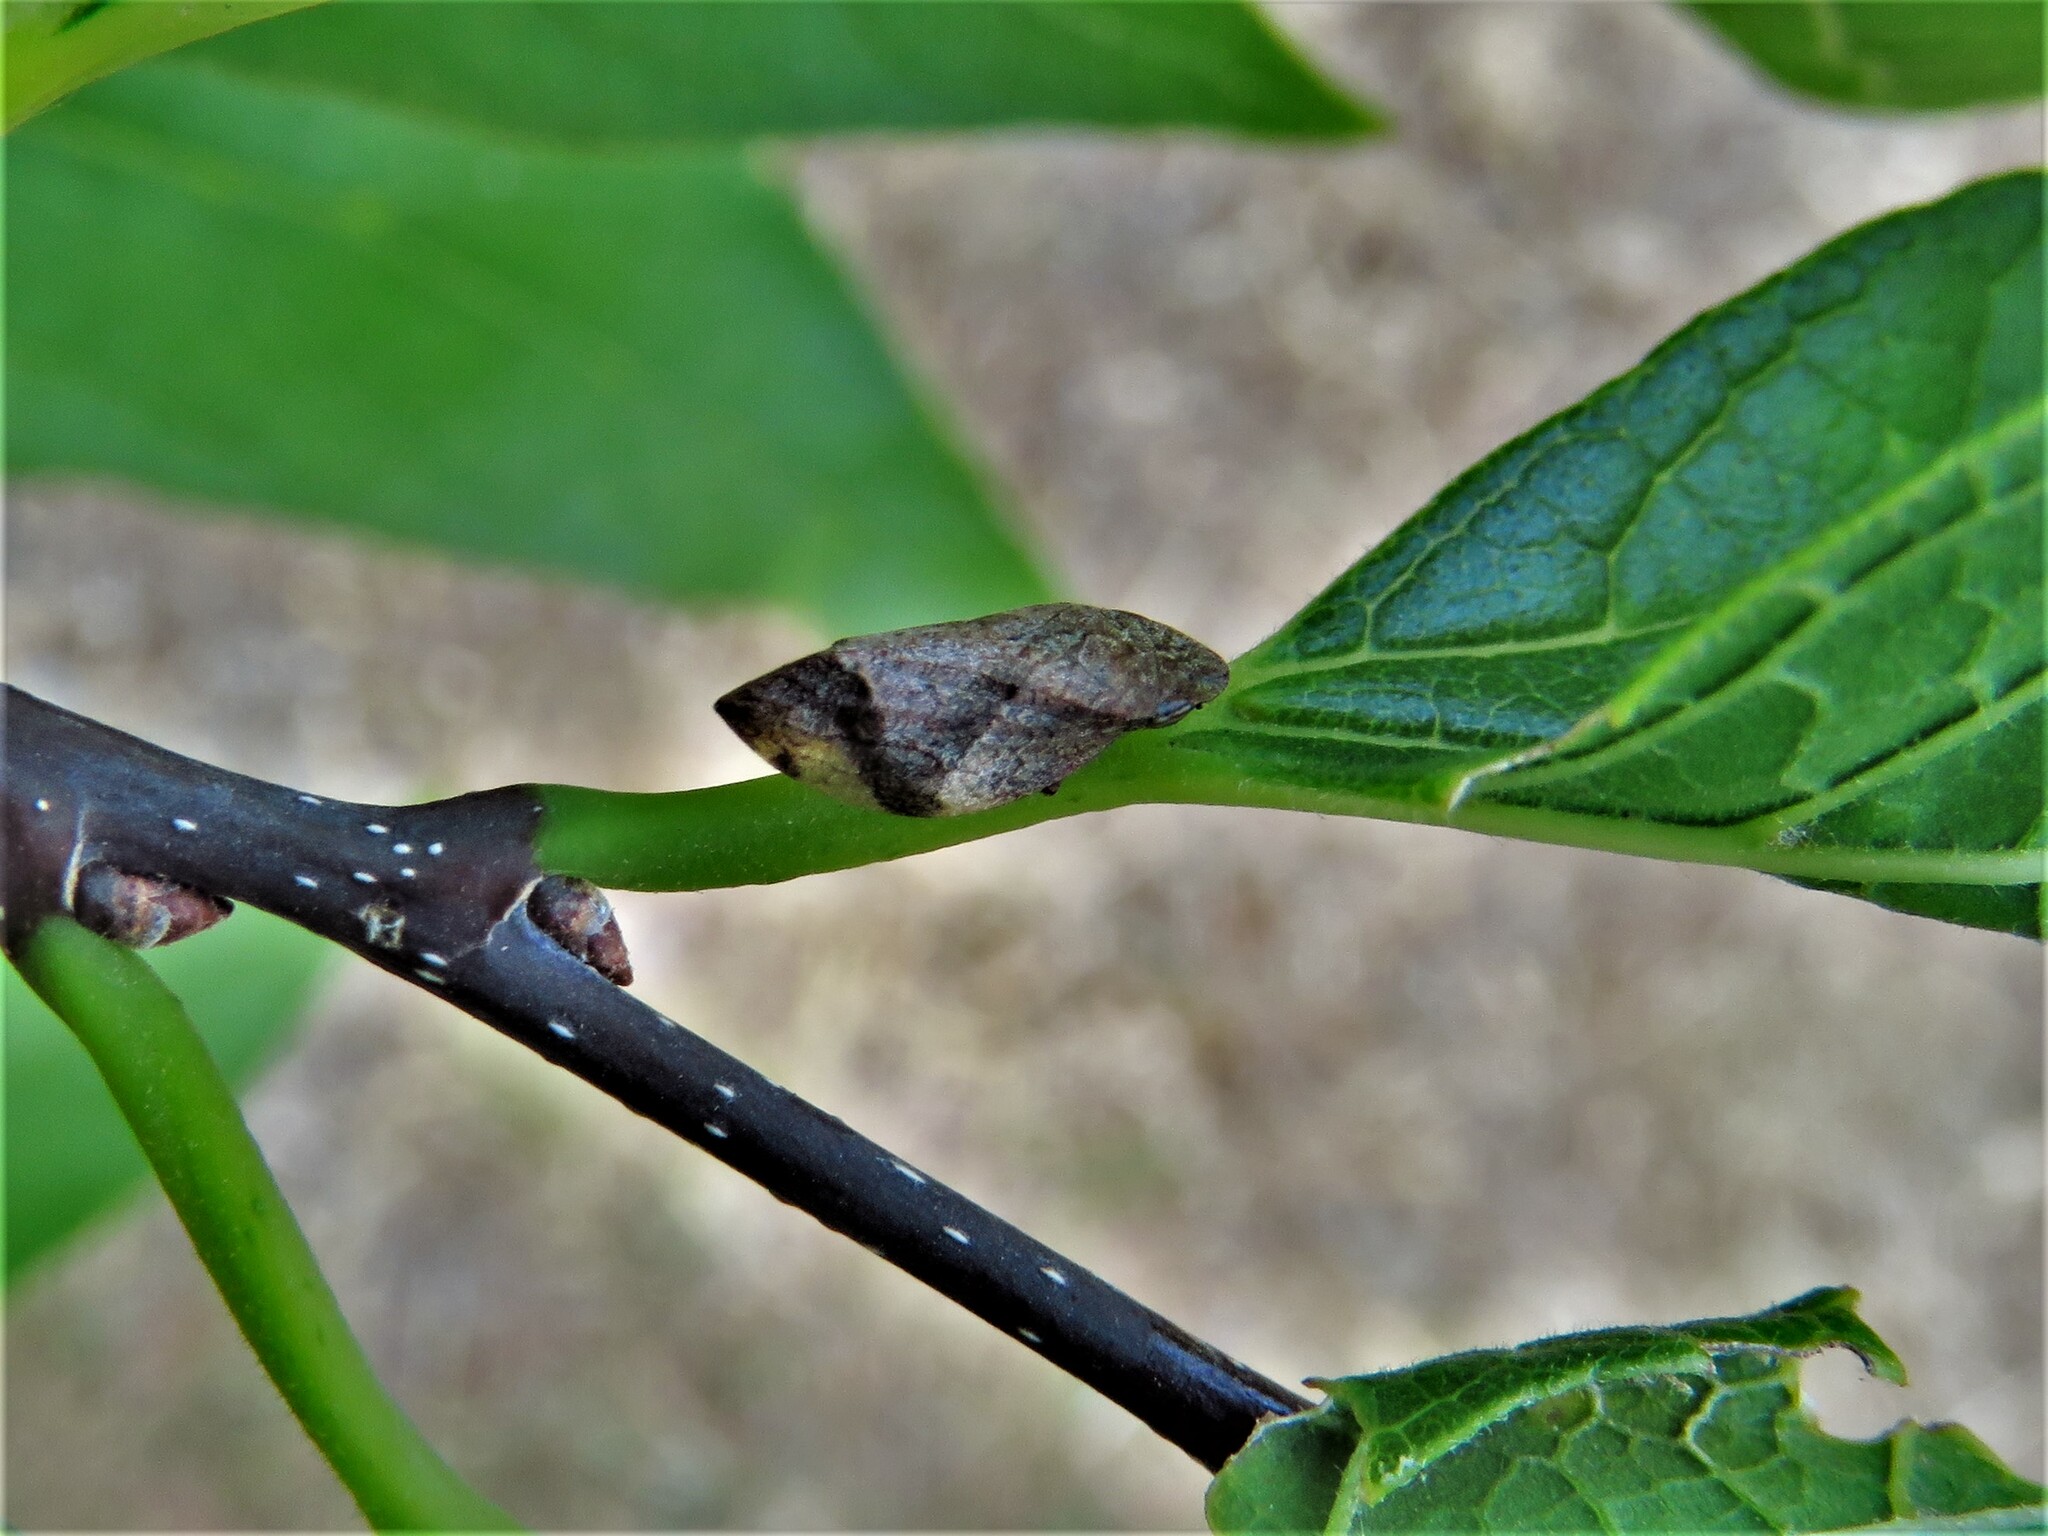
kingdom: Animalia
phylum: Arthropoda
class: Insecta
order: Hemiptera
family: Aphrophoridae
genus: Lepyronia
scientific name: Lepyronia quadrangularis
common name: Diamond-backed spittlebug
